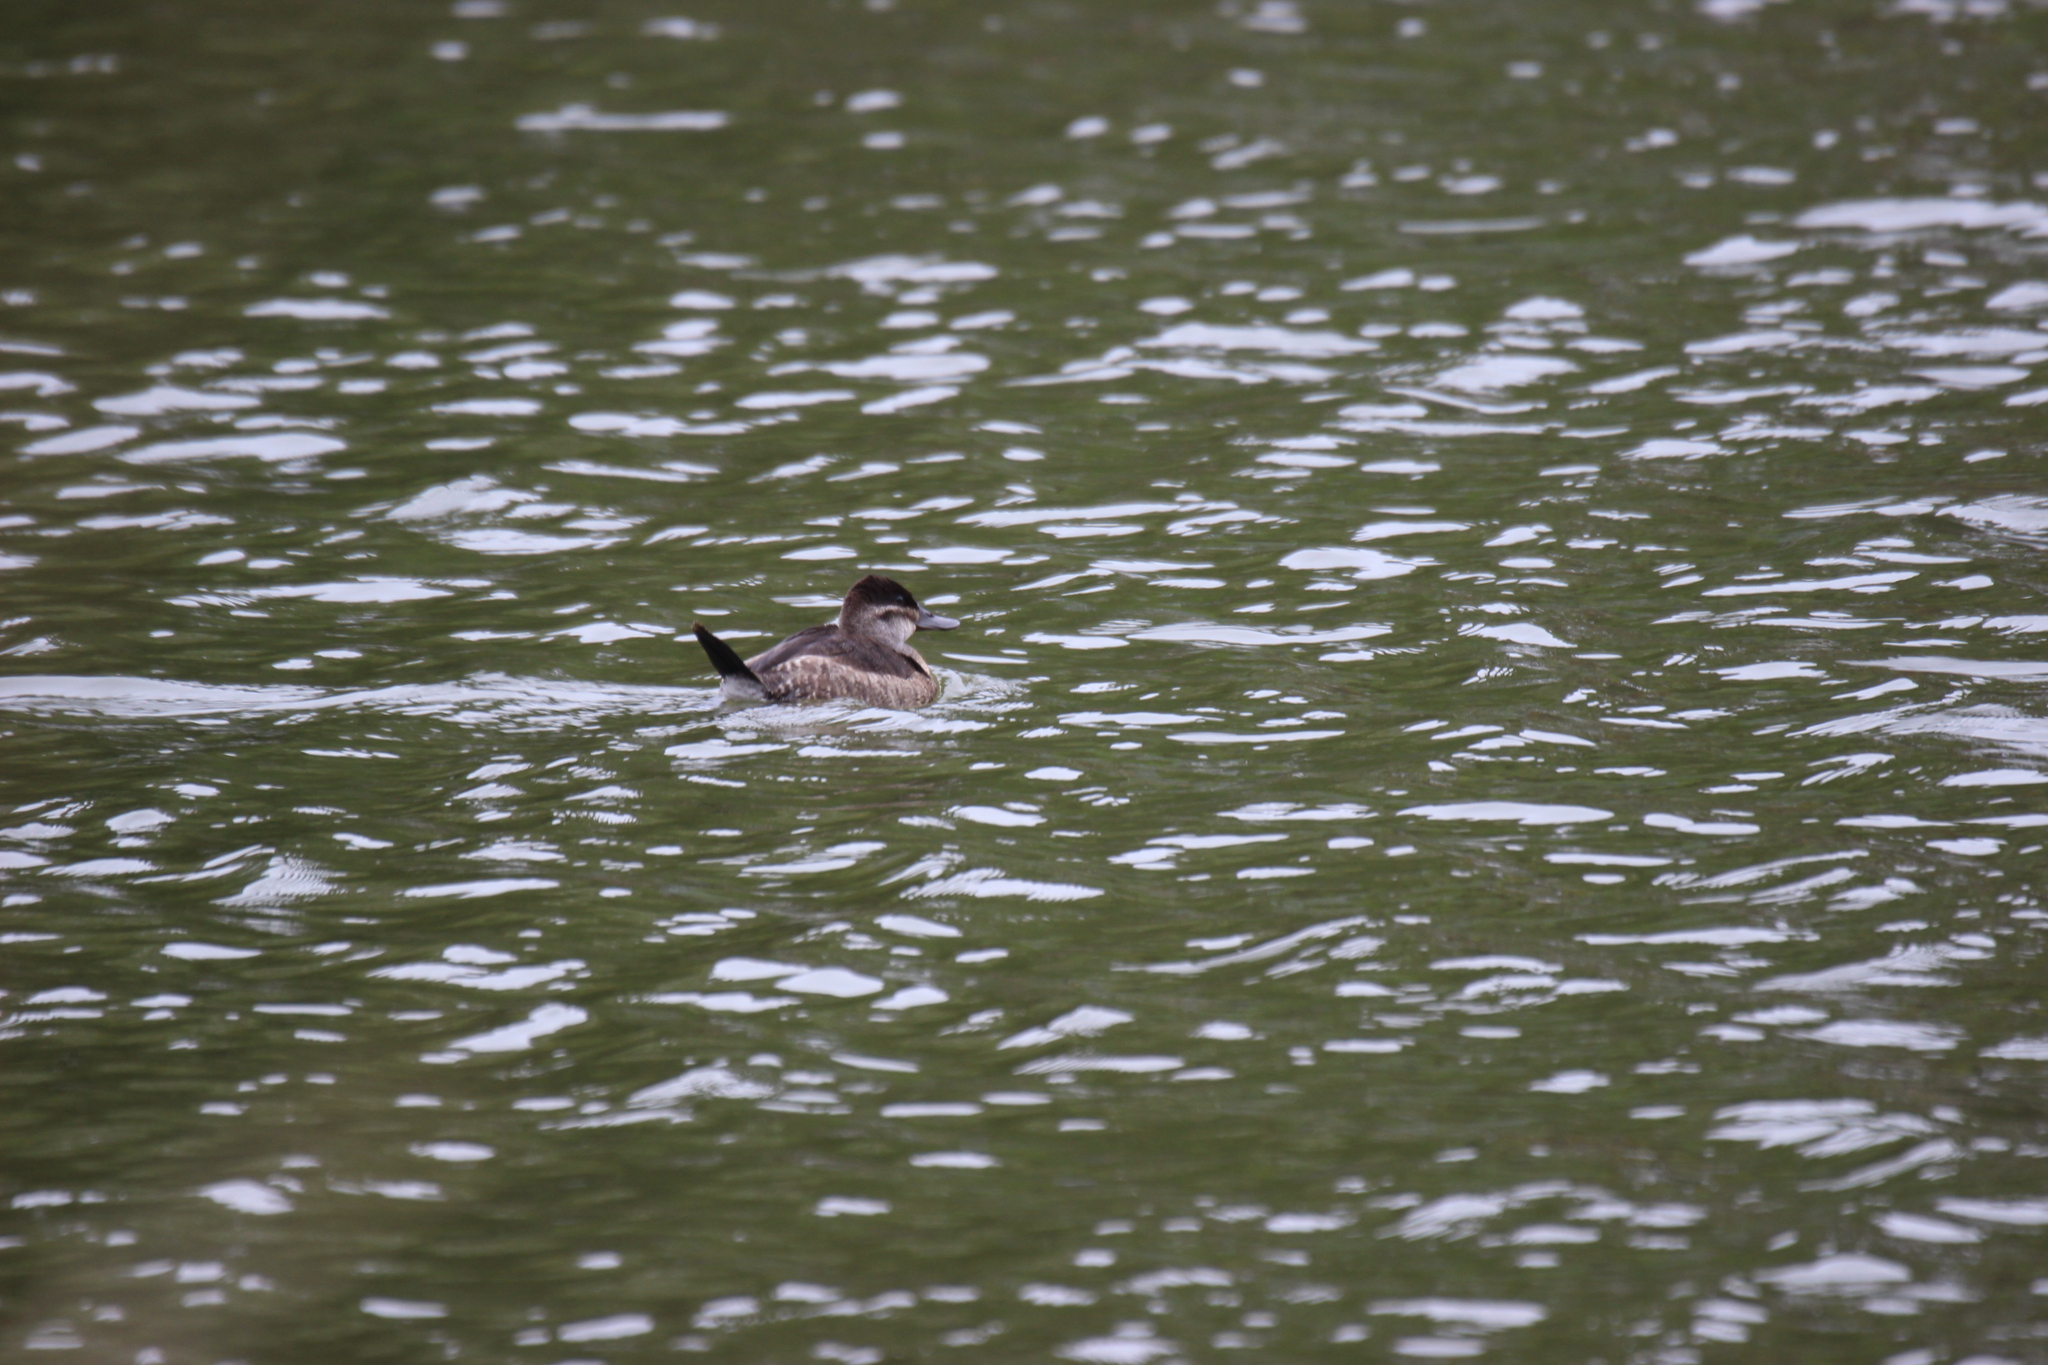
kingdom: Animalia
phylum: Chordata
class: Aves
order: Anseriformes
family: Anatidae
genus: Oxyura
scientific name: Oxyura jamaicensis
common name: Ruddy duck
